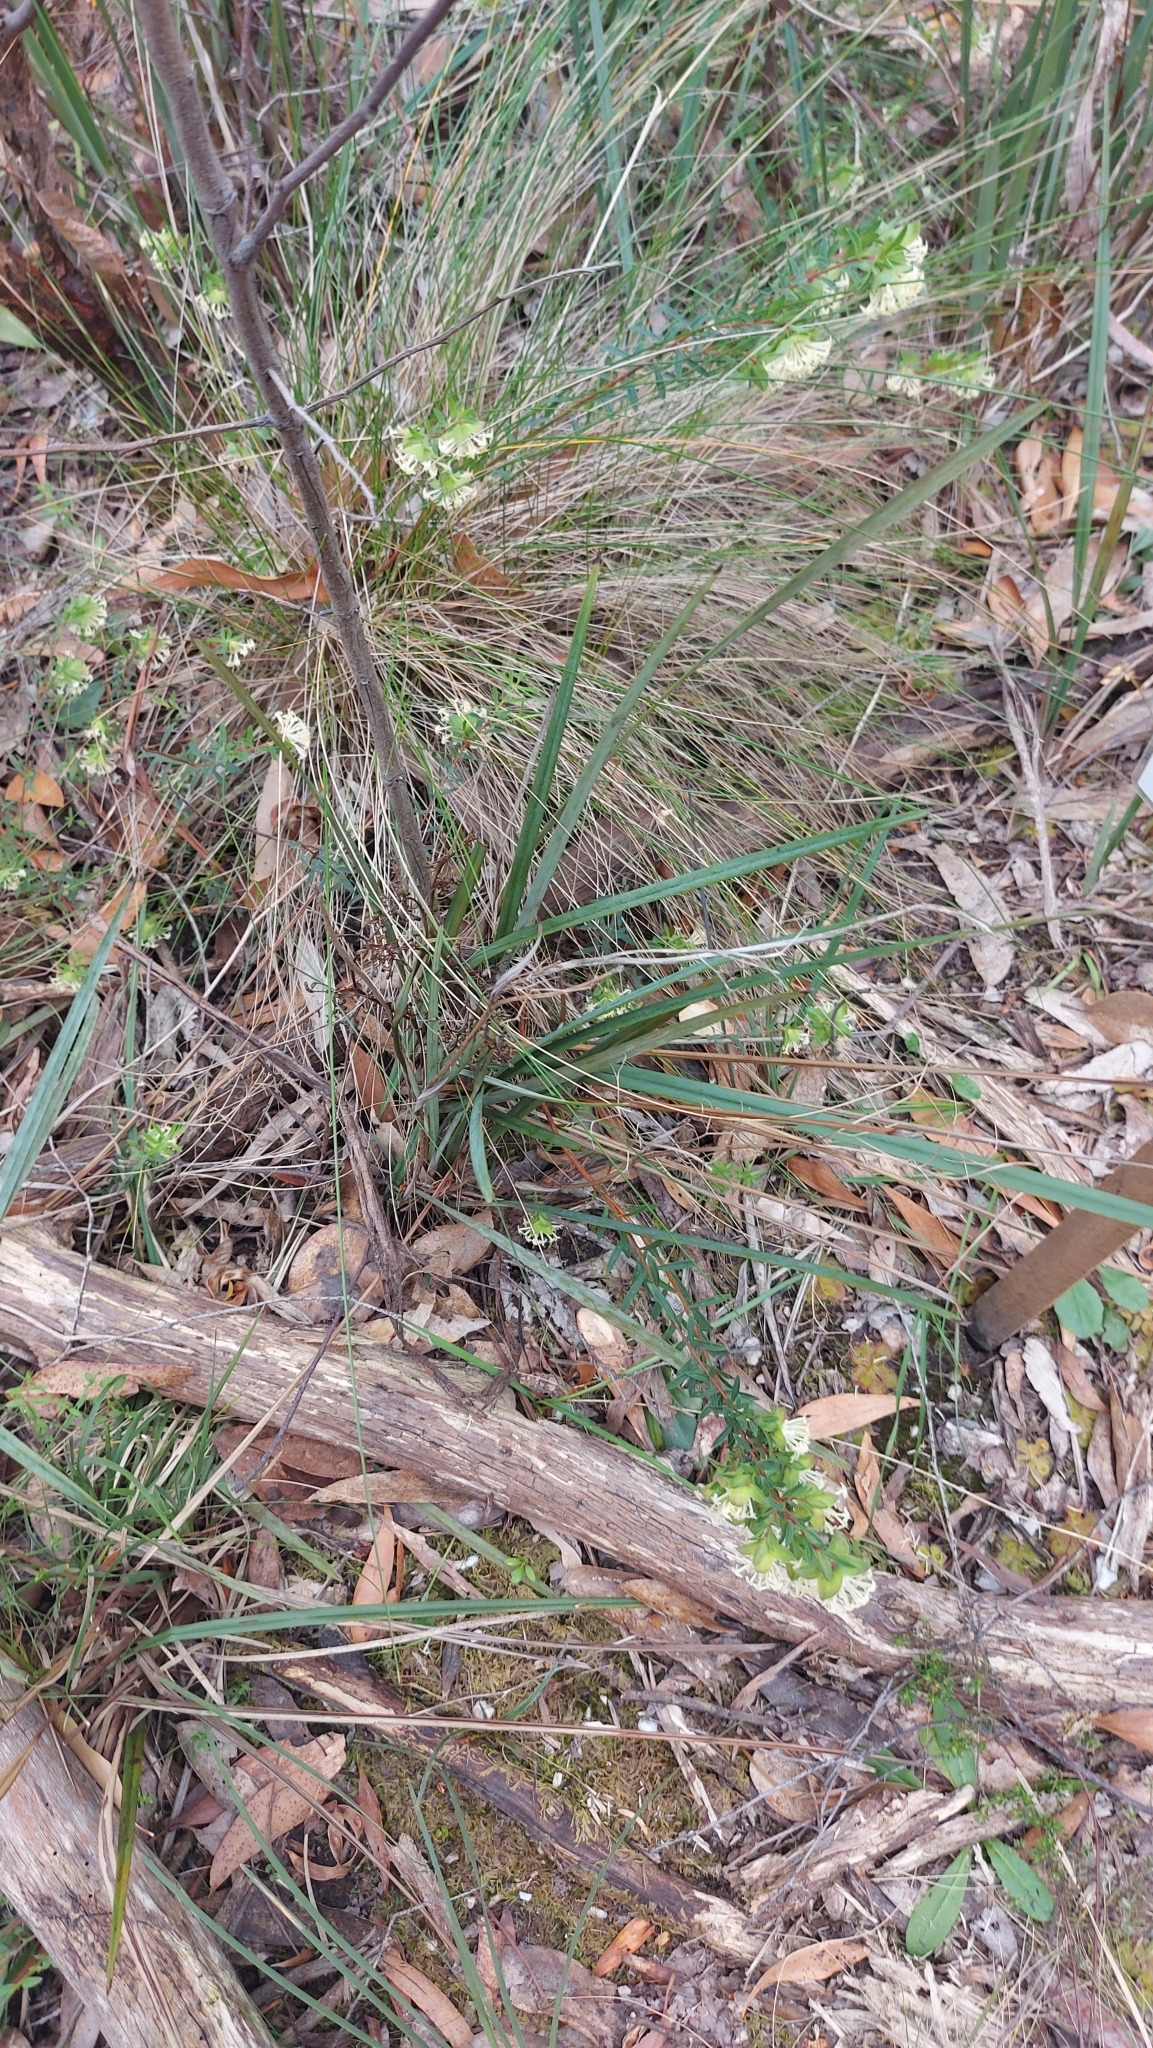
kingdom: Plantae
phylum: Tracheophyta
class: Magnoliopsida
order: Malvales
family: Thymelaeaceae
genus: Pimelea
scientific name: Pimelea linifolia
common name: Queen-of-the-bush
